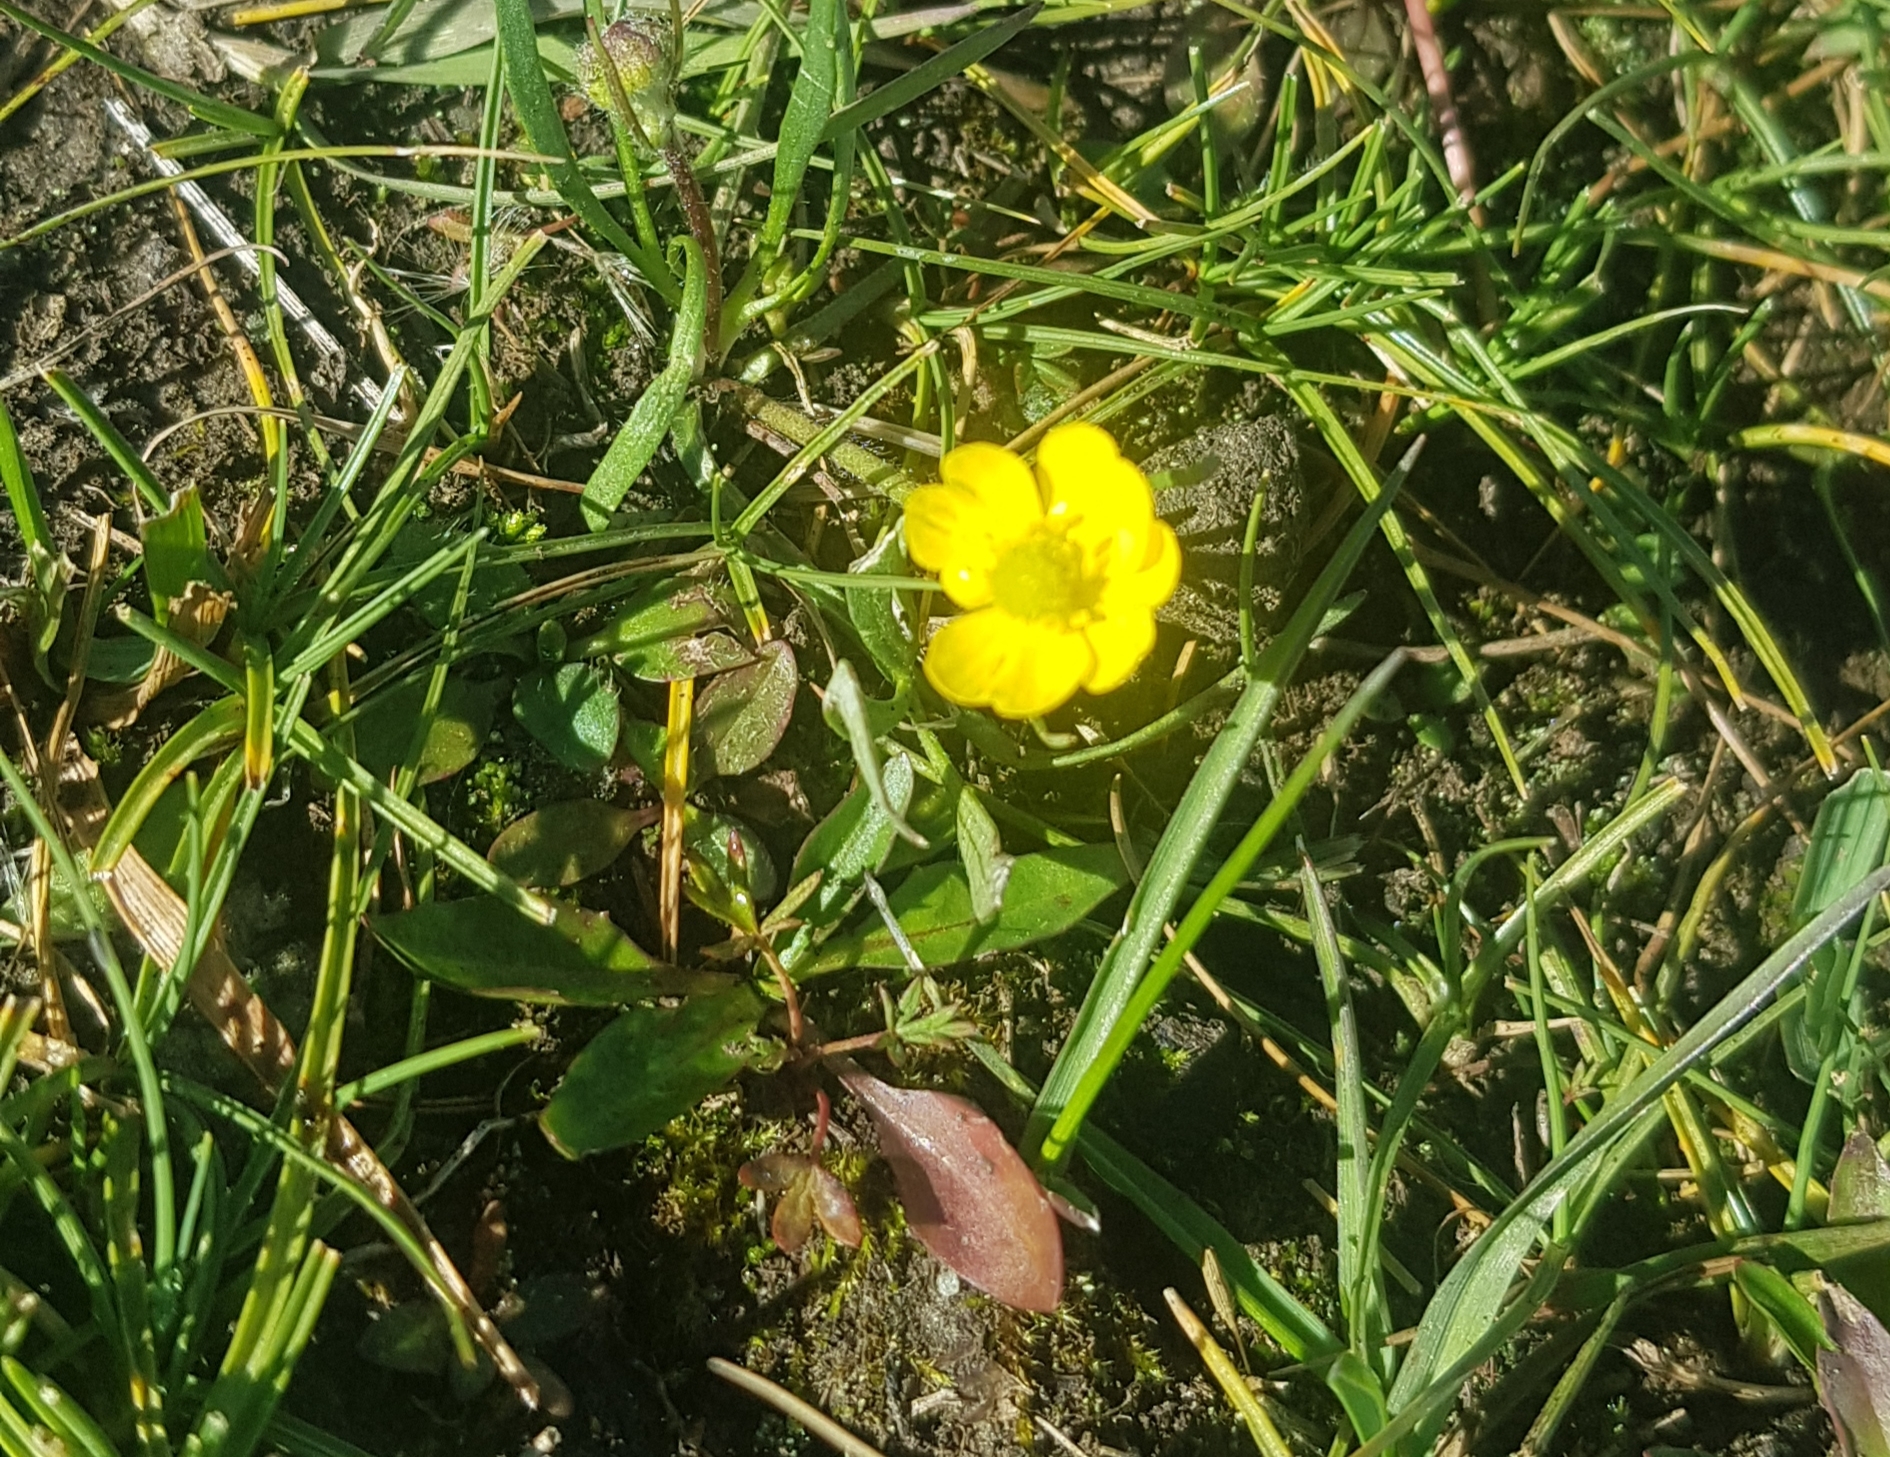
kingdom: Plantae
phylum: Tracheophyta
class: Magnoliopsida
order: Ranunculales
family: Ranunculaceae
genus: Ranunculus
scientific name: Ranunculus acris
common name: Meadow buttercup
